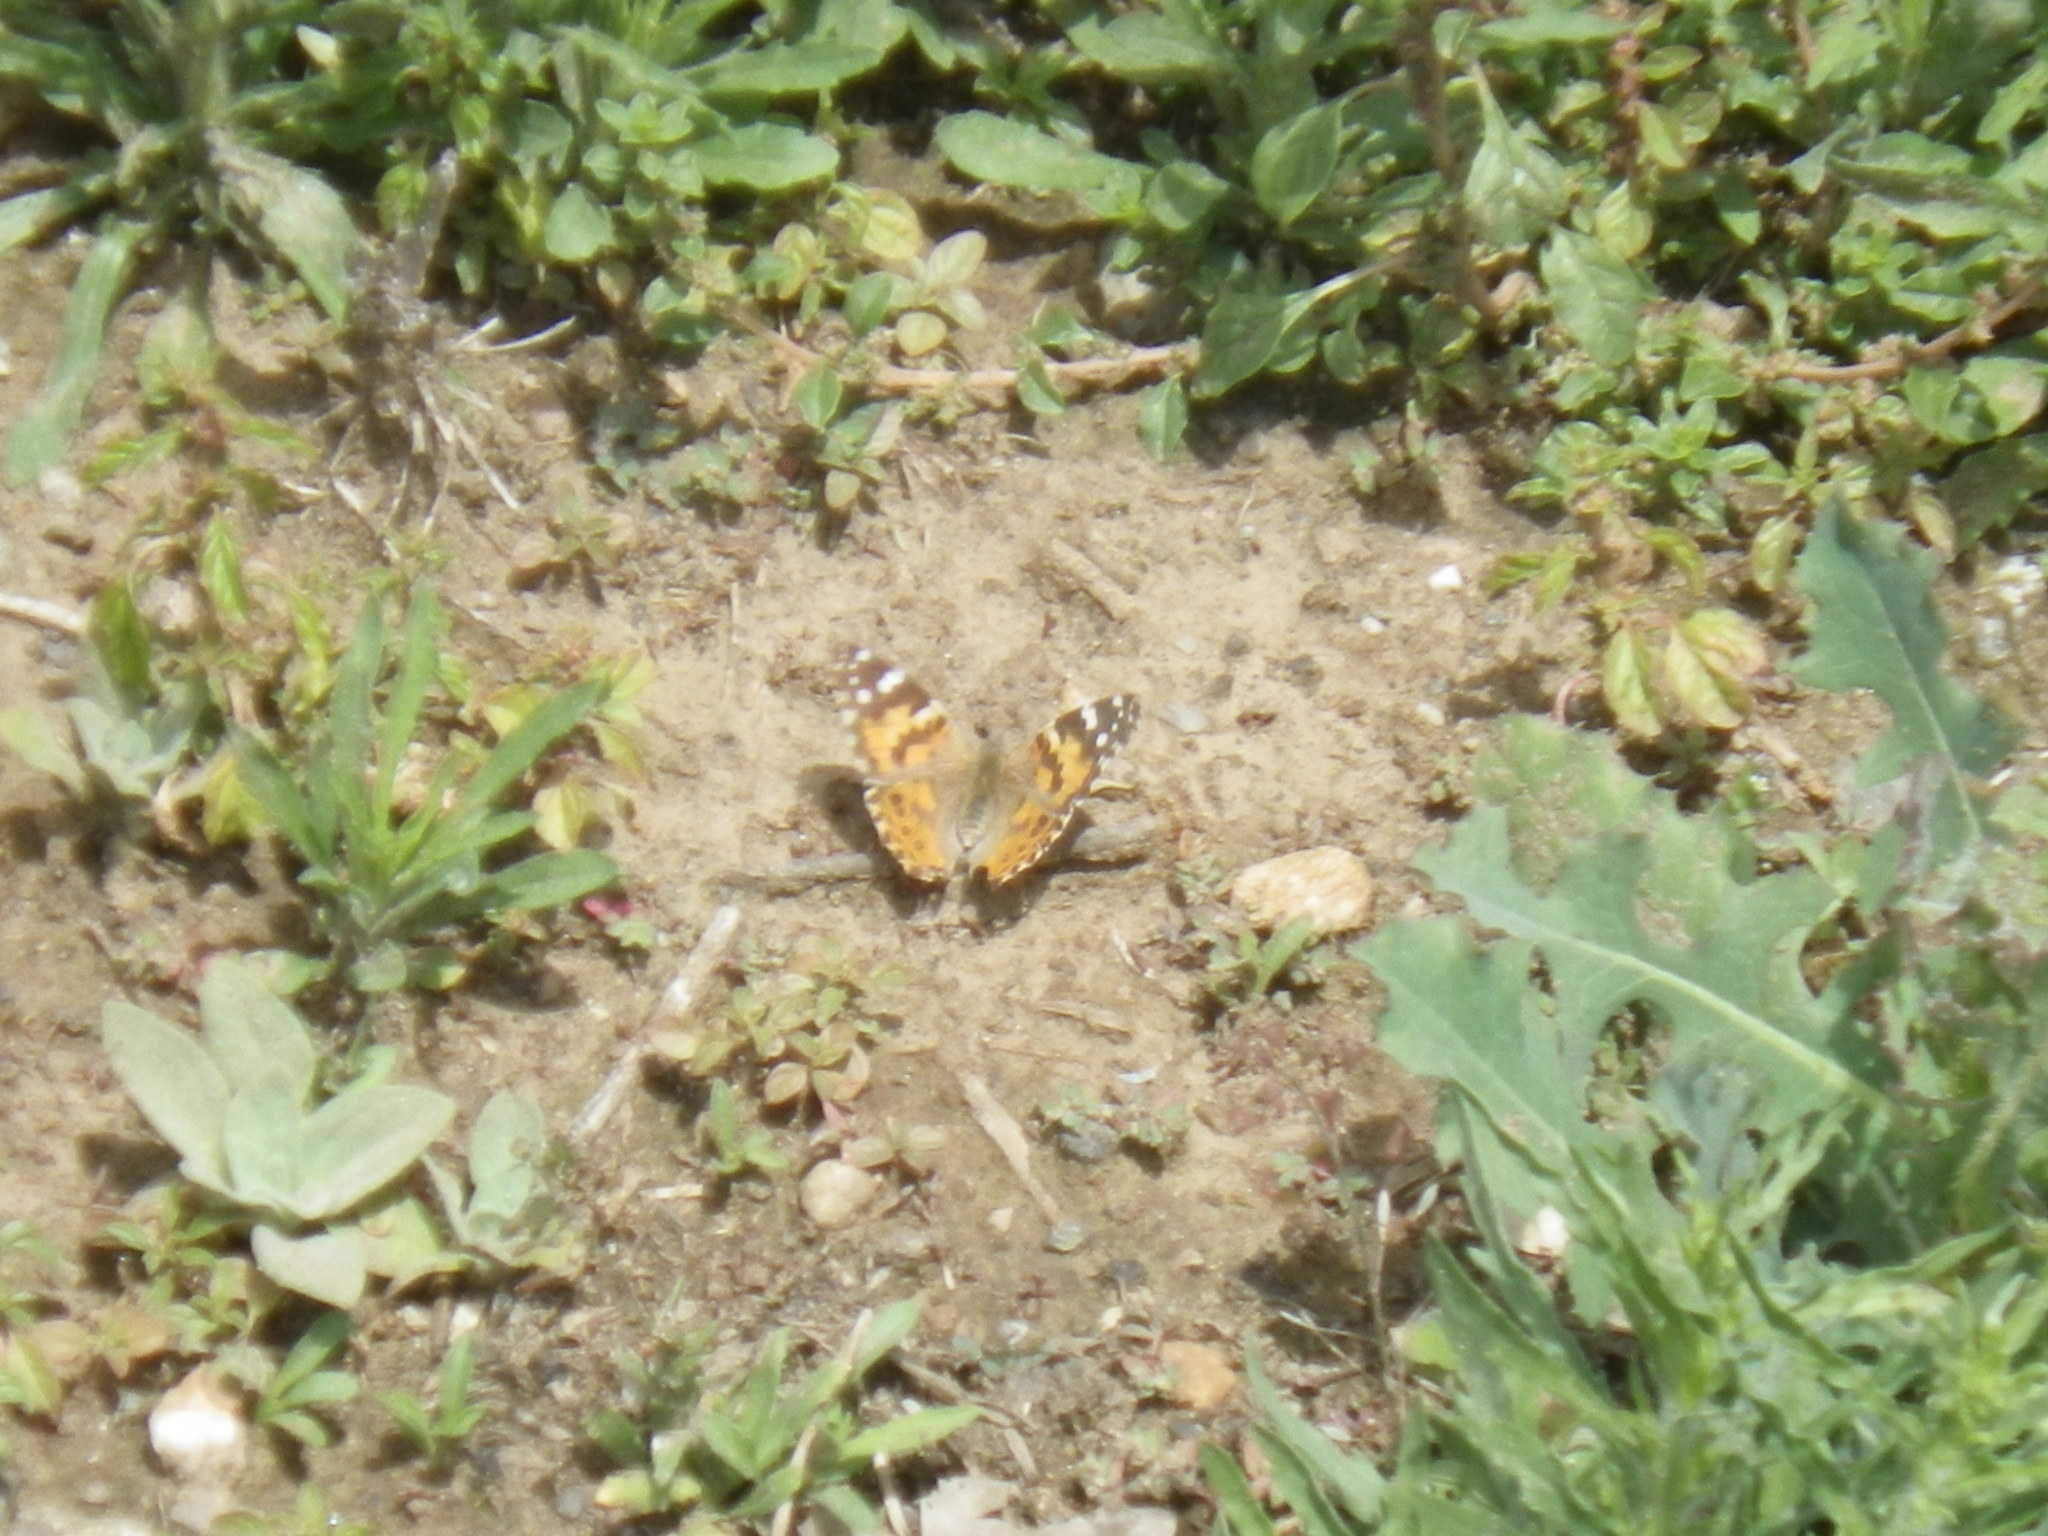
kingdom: Animalia
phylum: Arthropoda
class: Insecta
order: Lepidoptera
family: Nymphalidae
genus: Vanessa
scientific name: Vanessa cardui
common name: Painted lady
